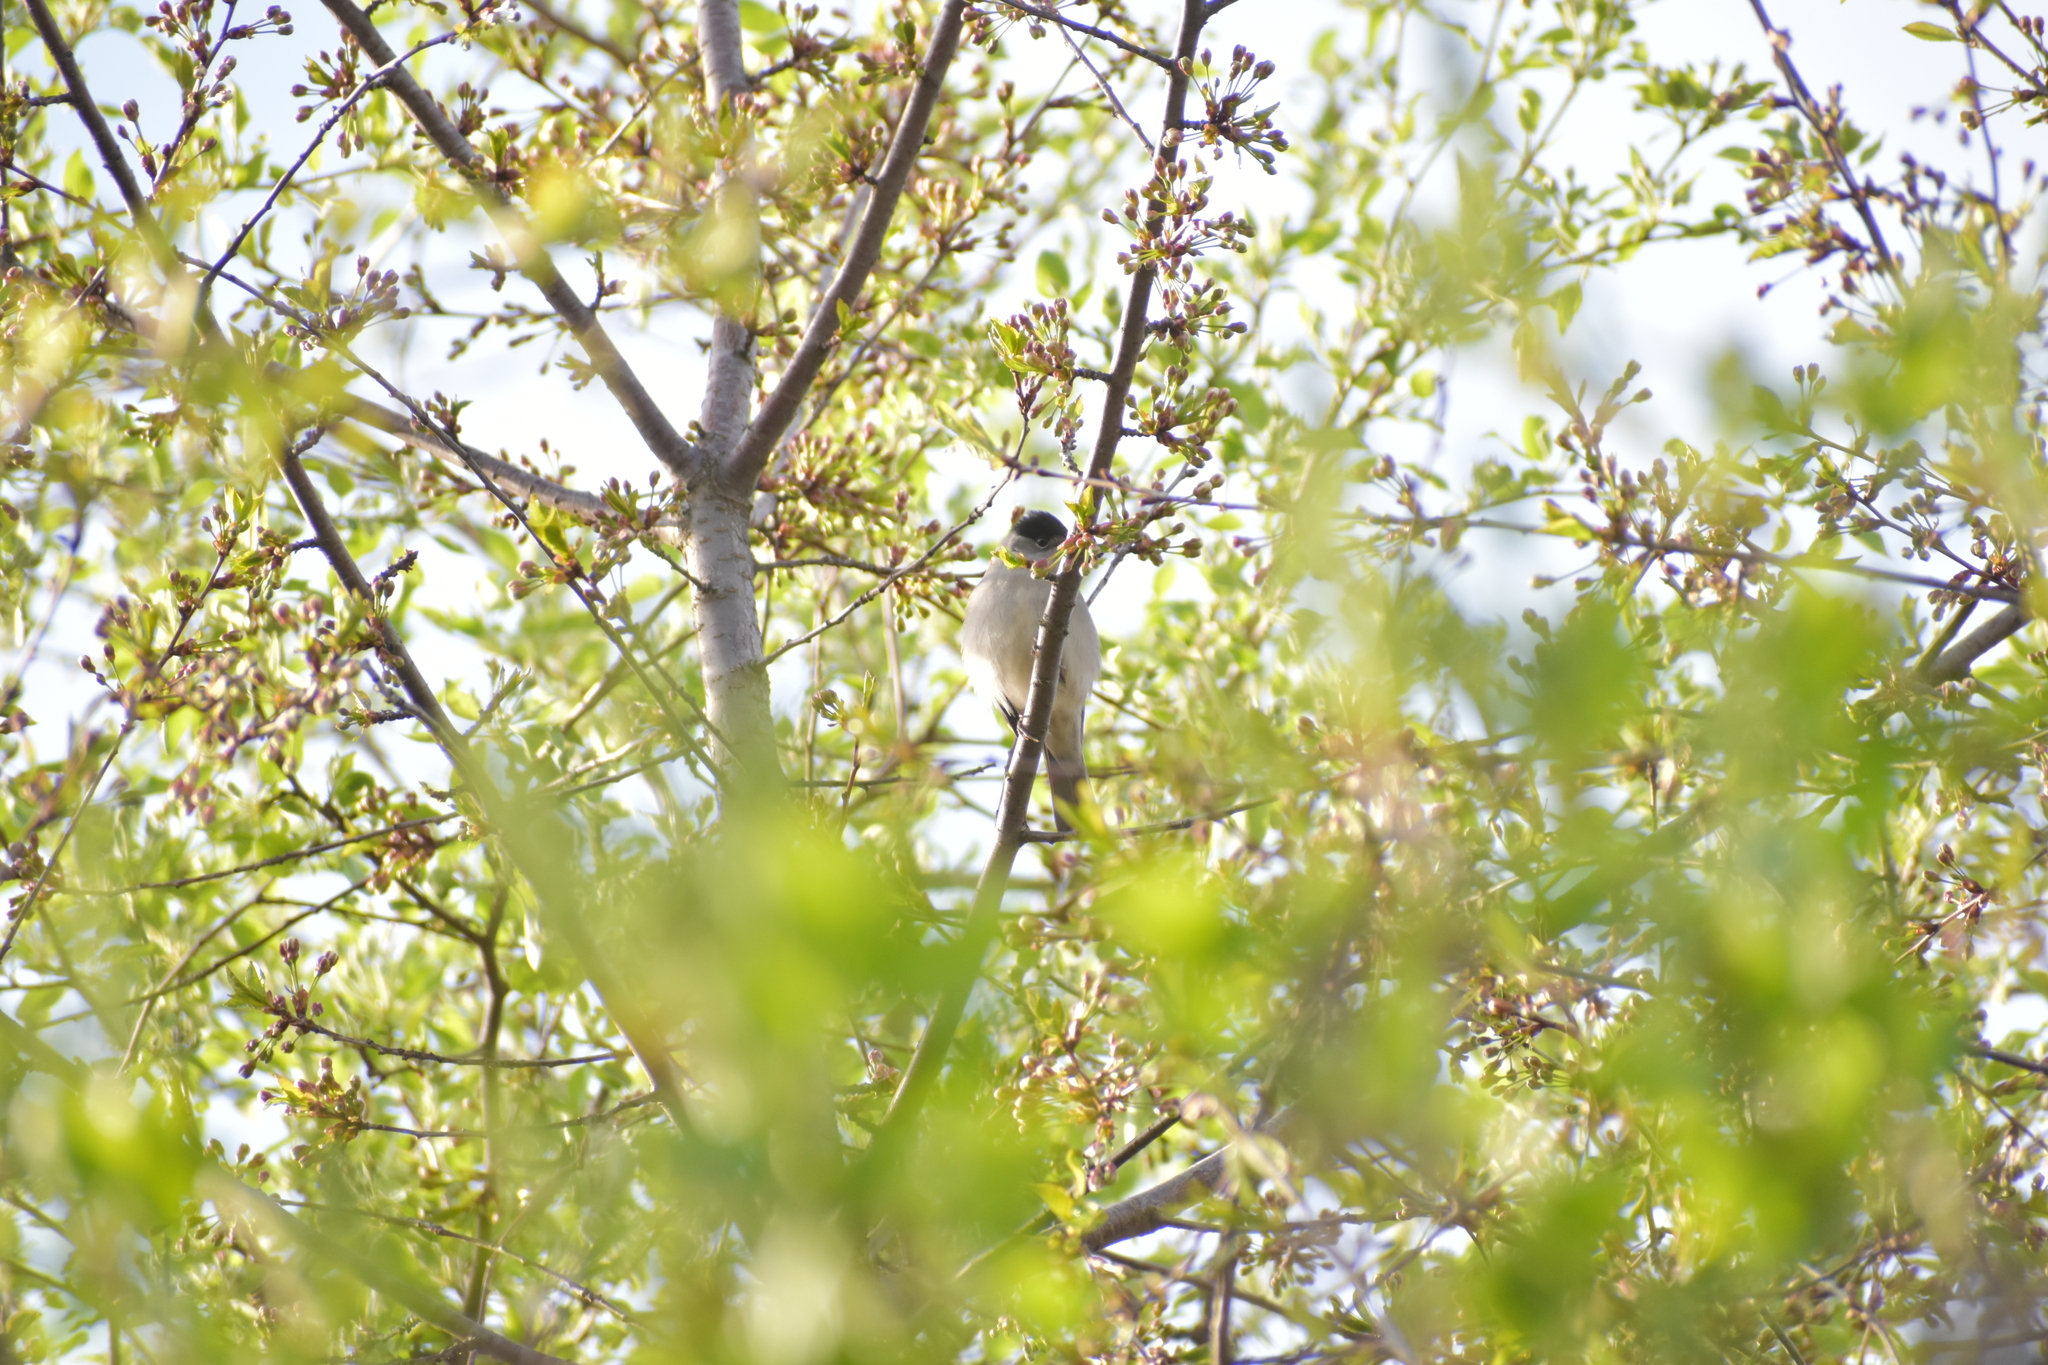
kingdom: Animalia
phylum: Chordata
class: Aves
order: Passeriformes
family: Sylviidae
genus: Sylvia
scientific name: Sylvia atricapilla
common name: Eurasian blackcap
